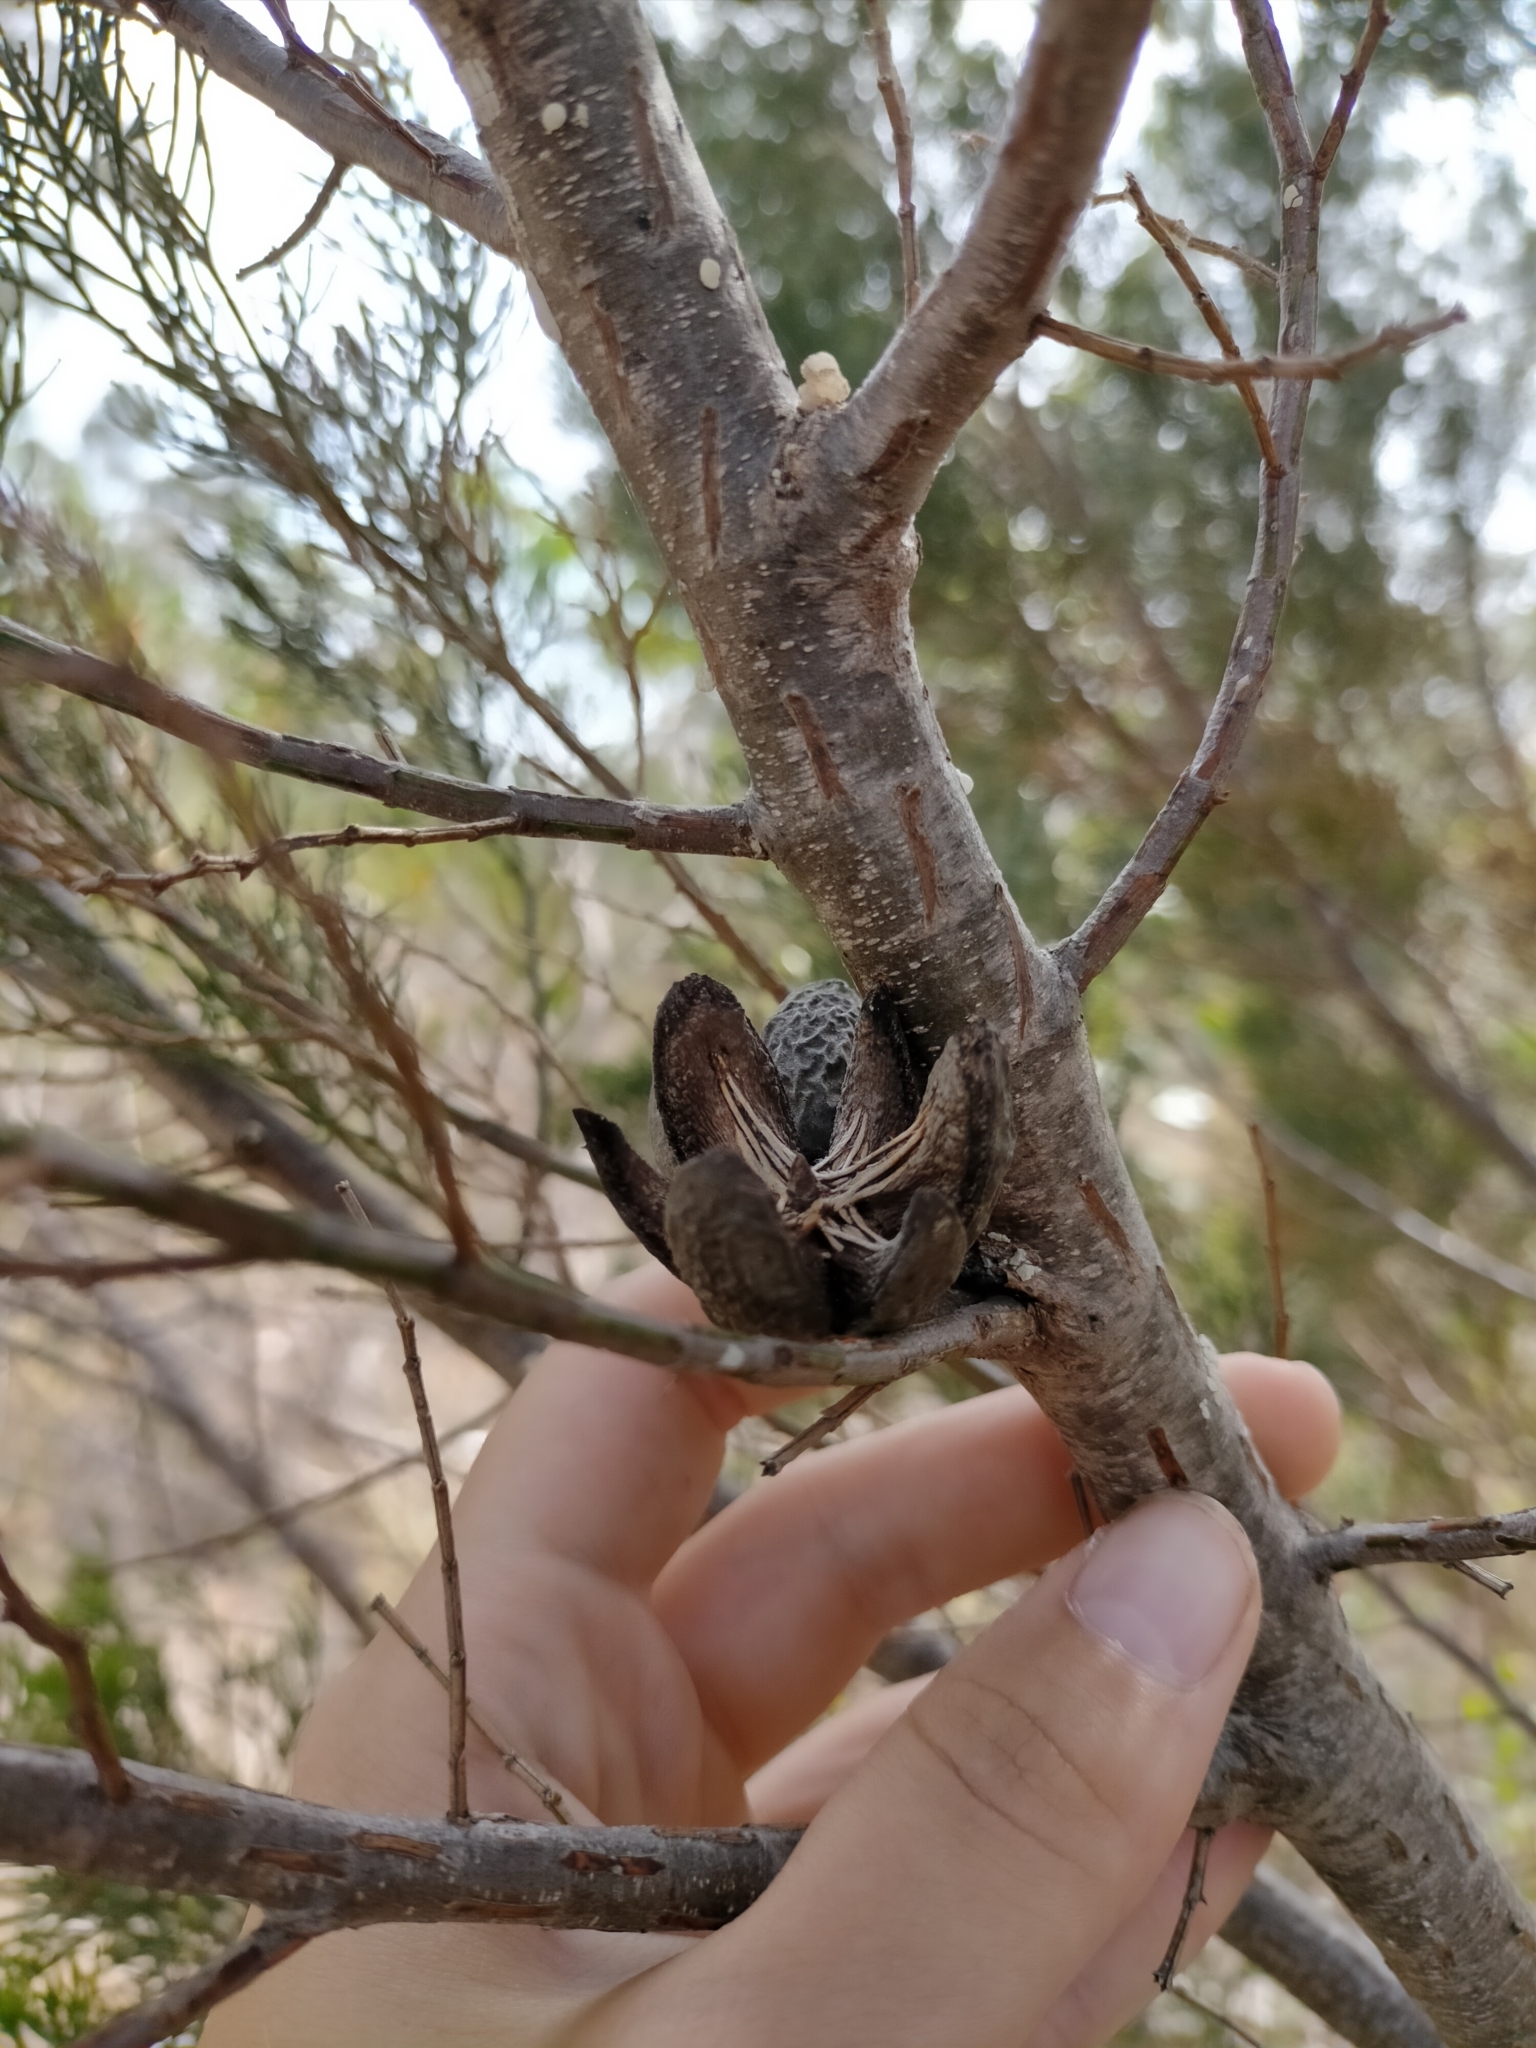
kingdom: Plantae
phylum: Tracheophyta
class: Pinopsida
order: Pinales
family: Cupressaceae
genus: Callitris
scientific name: Callitris preissii
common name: Mallee pine
